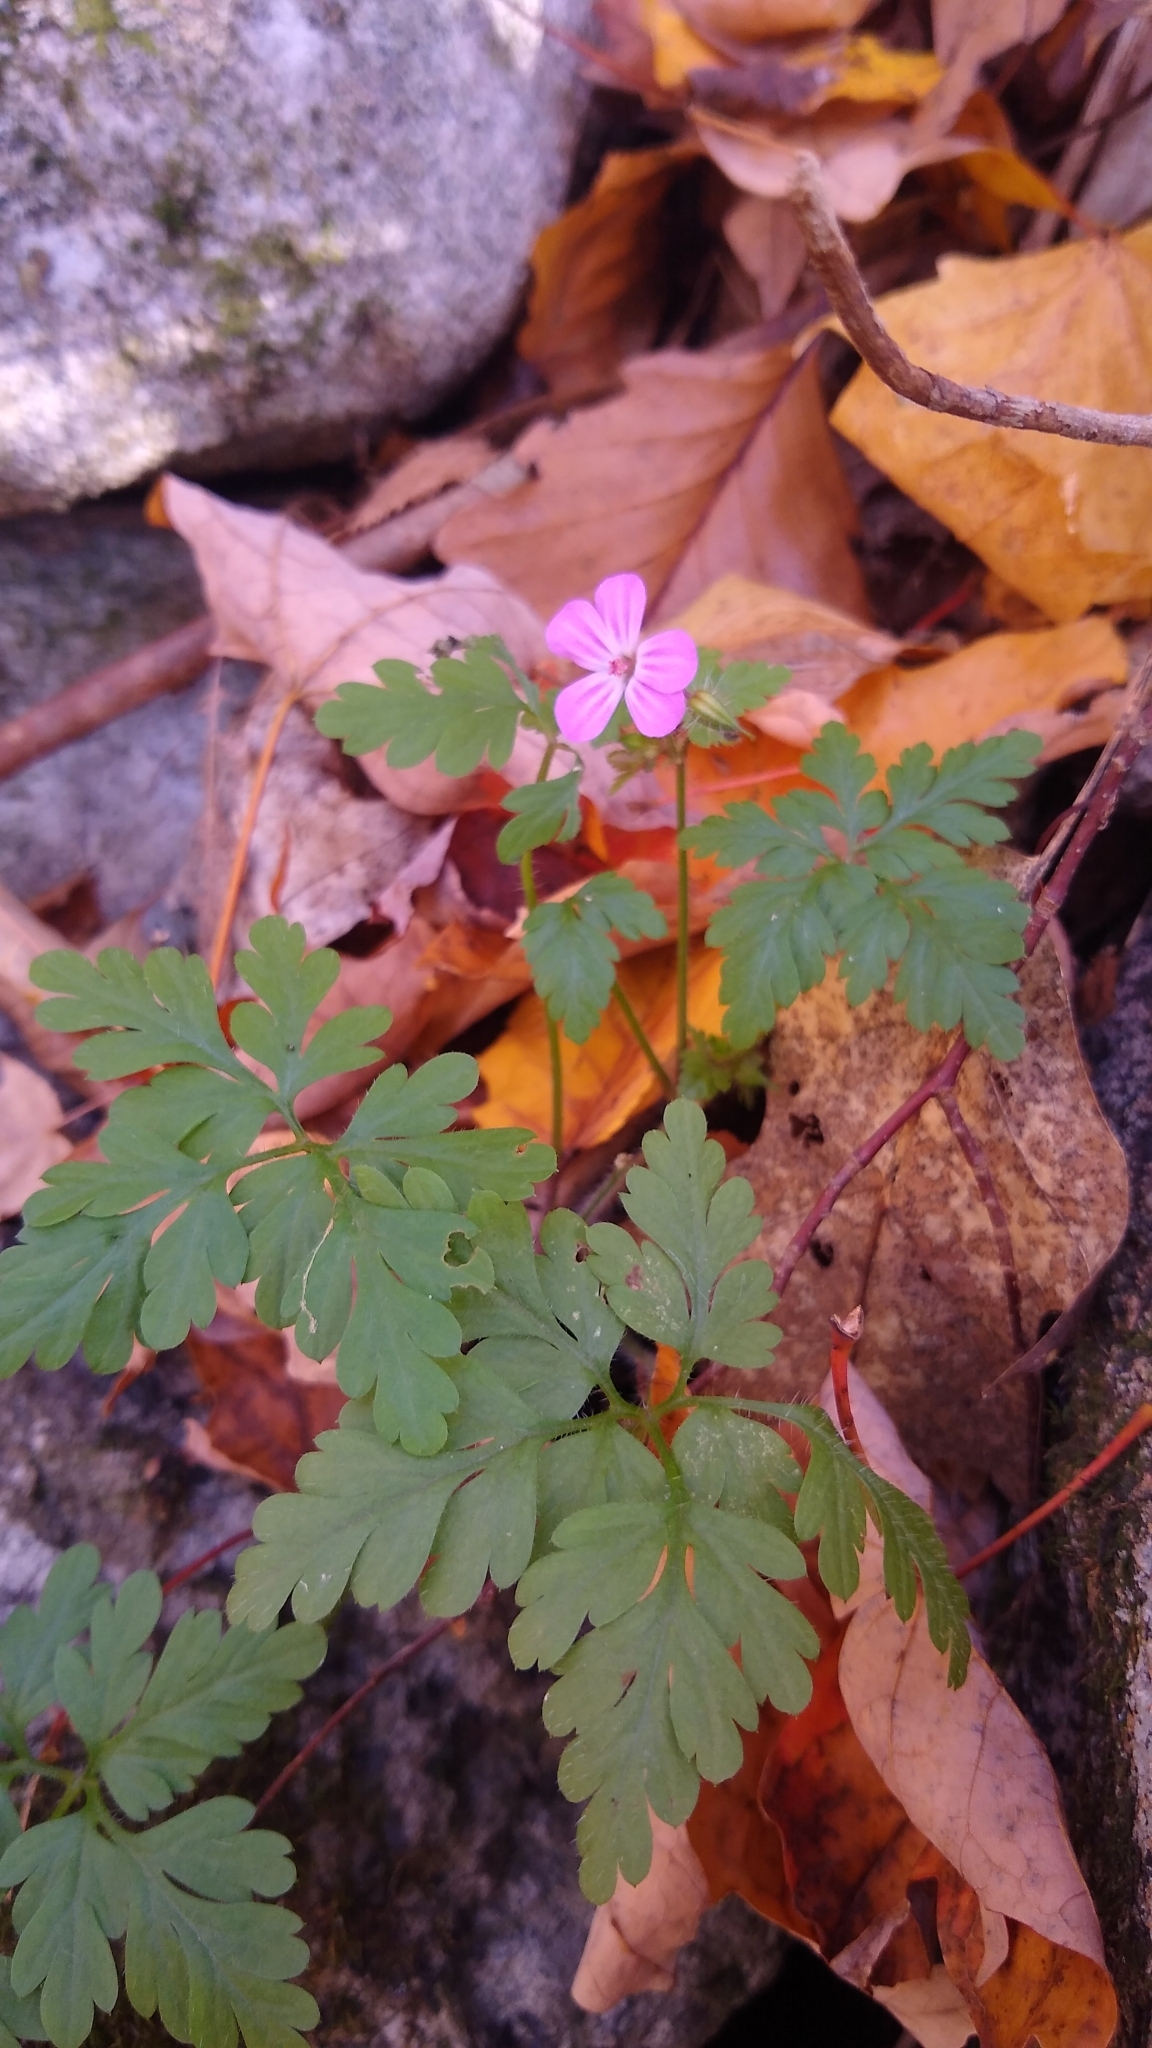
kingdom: Plantae
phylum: Tracheophyta
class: Magnoliopsida
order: Geraniales
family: Geraniaceae
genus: Geranium
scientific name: Geranium robertianum
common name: Herb-robert
